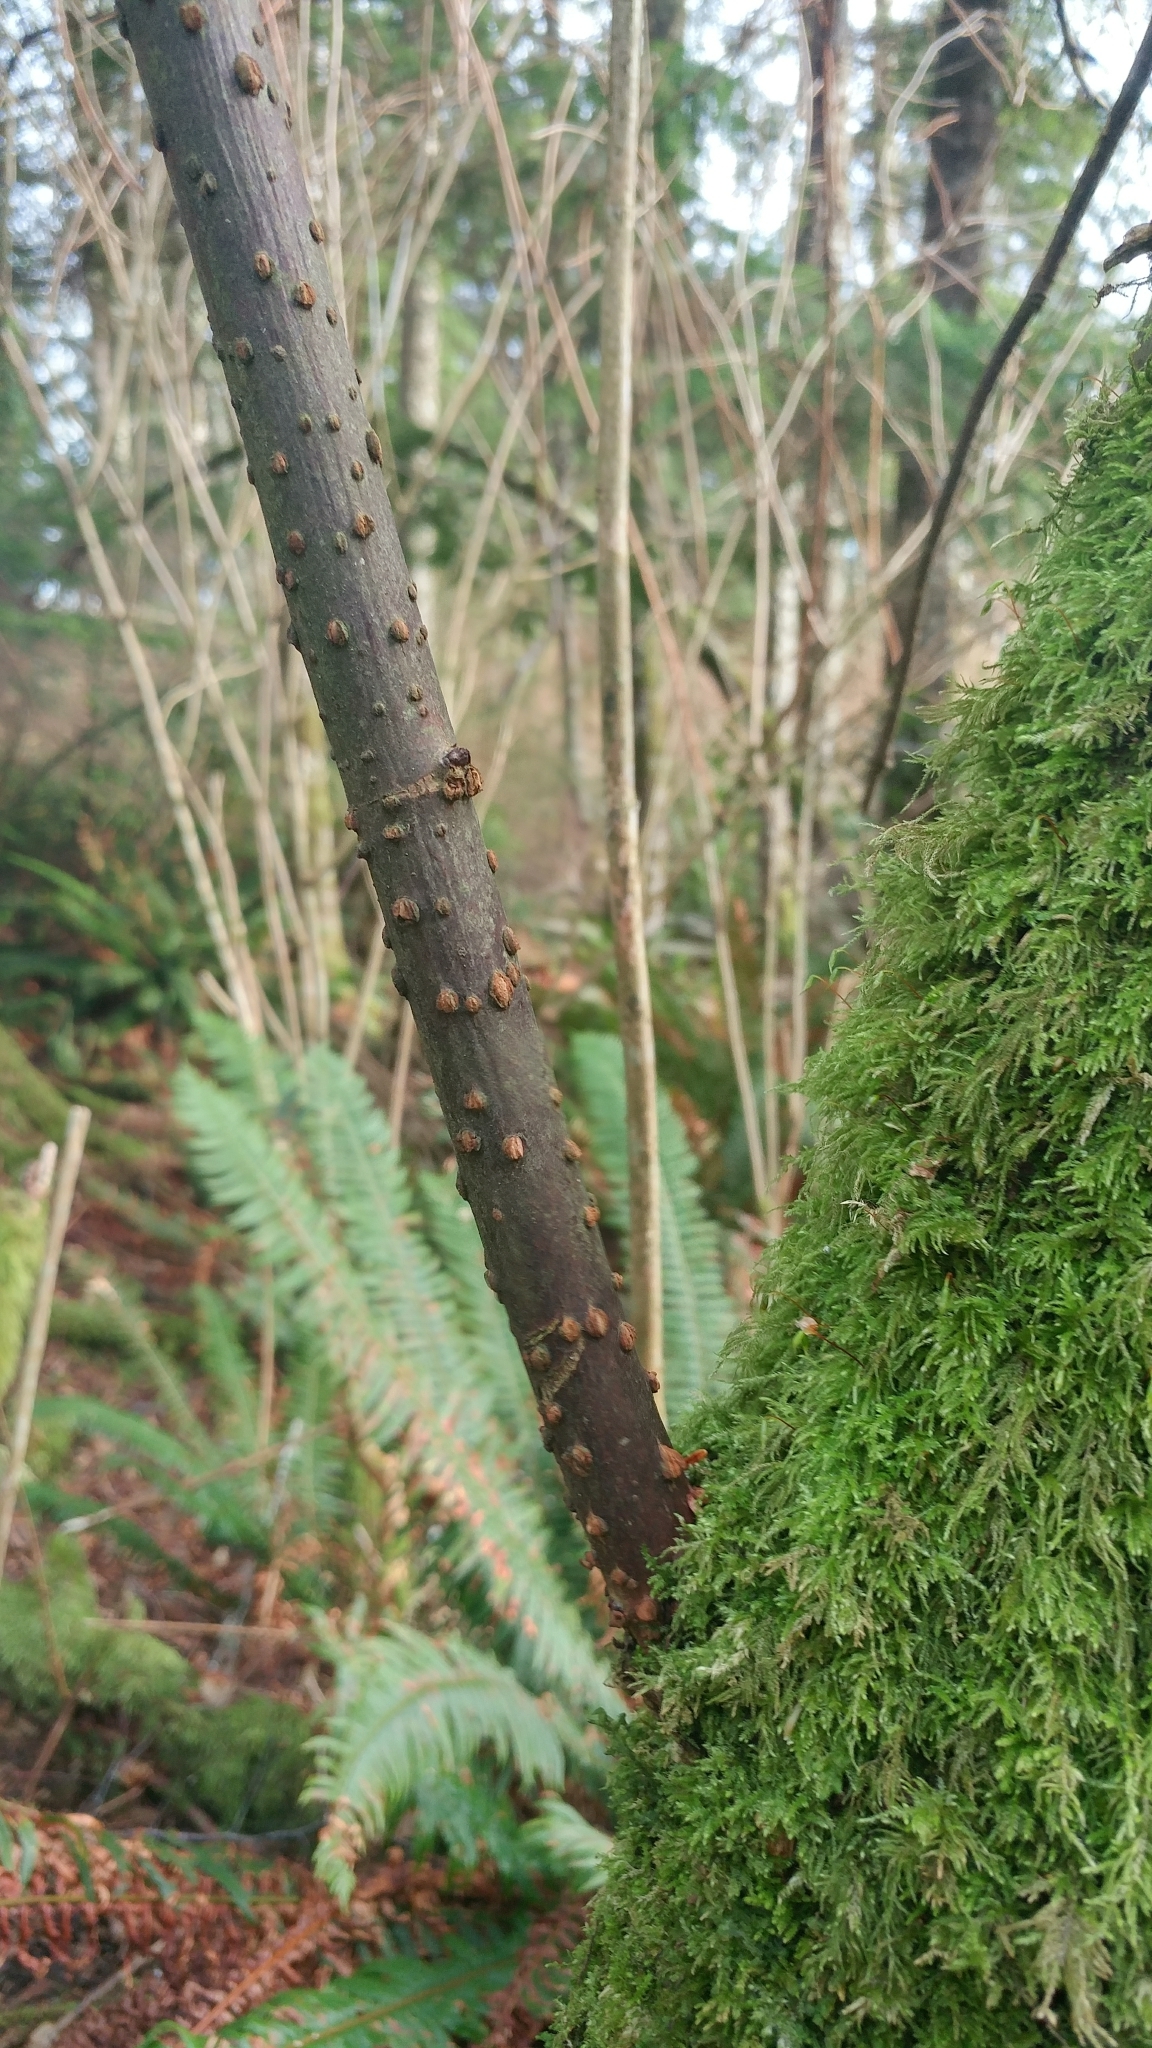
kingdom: Plantae
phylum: Tracheophyta
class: Magnoliopsida
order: Dipsacales
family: Viburnaceae
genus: Sambucus
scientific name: Sambucus racemosa
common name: Red-berried elder
